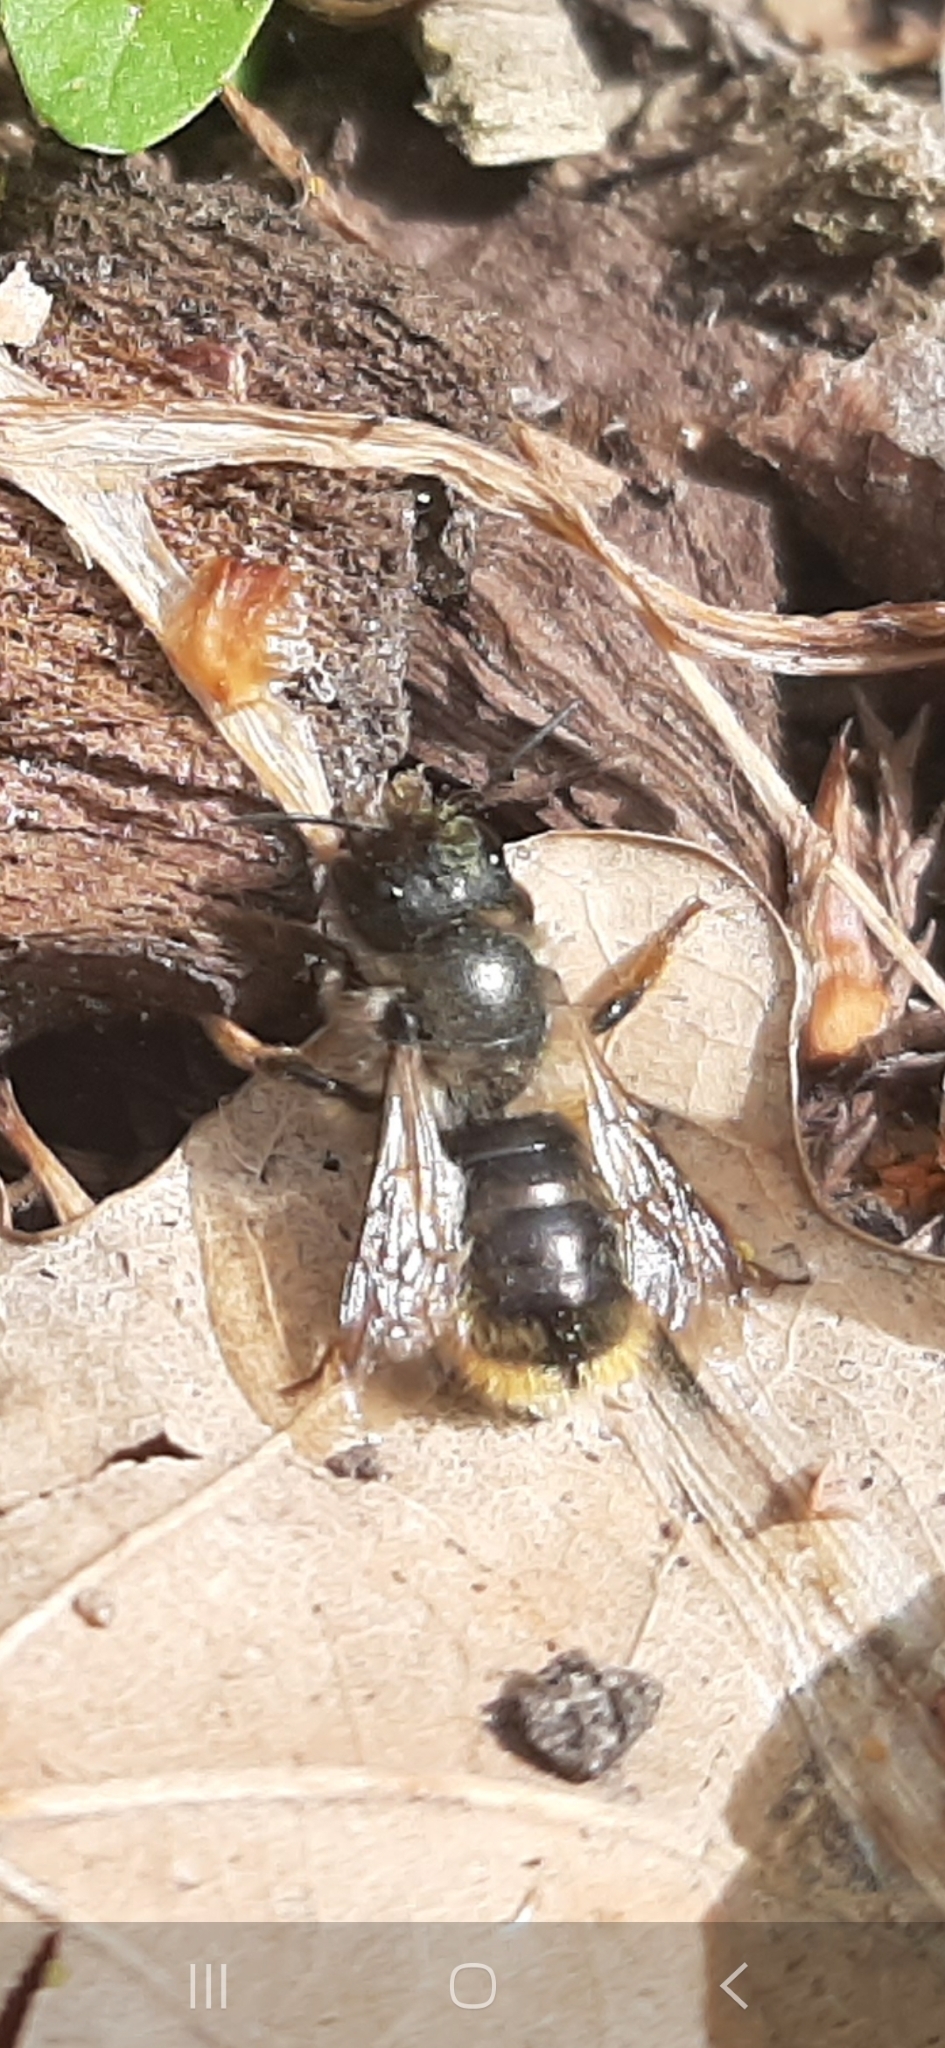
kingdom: Animalia
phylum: Arthropoda
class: Insecta
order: Hymenoptera
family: Megachilidae
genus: Osmia
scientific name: Osmia bicornis
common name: Red mason bee
